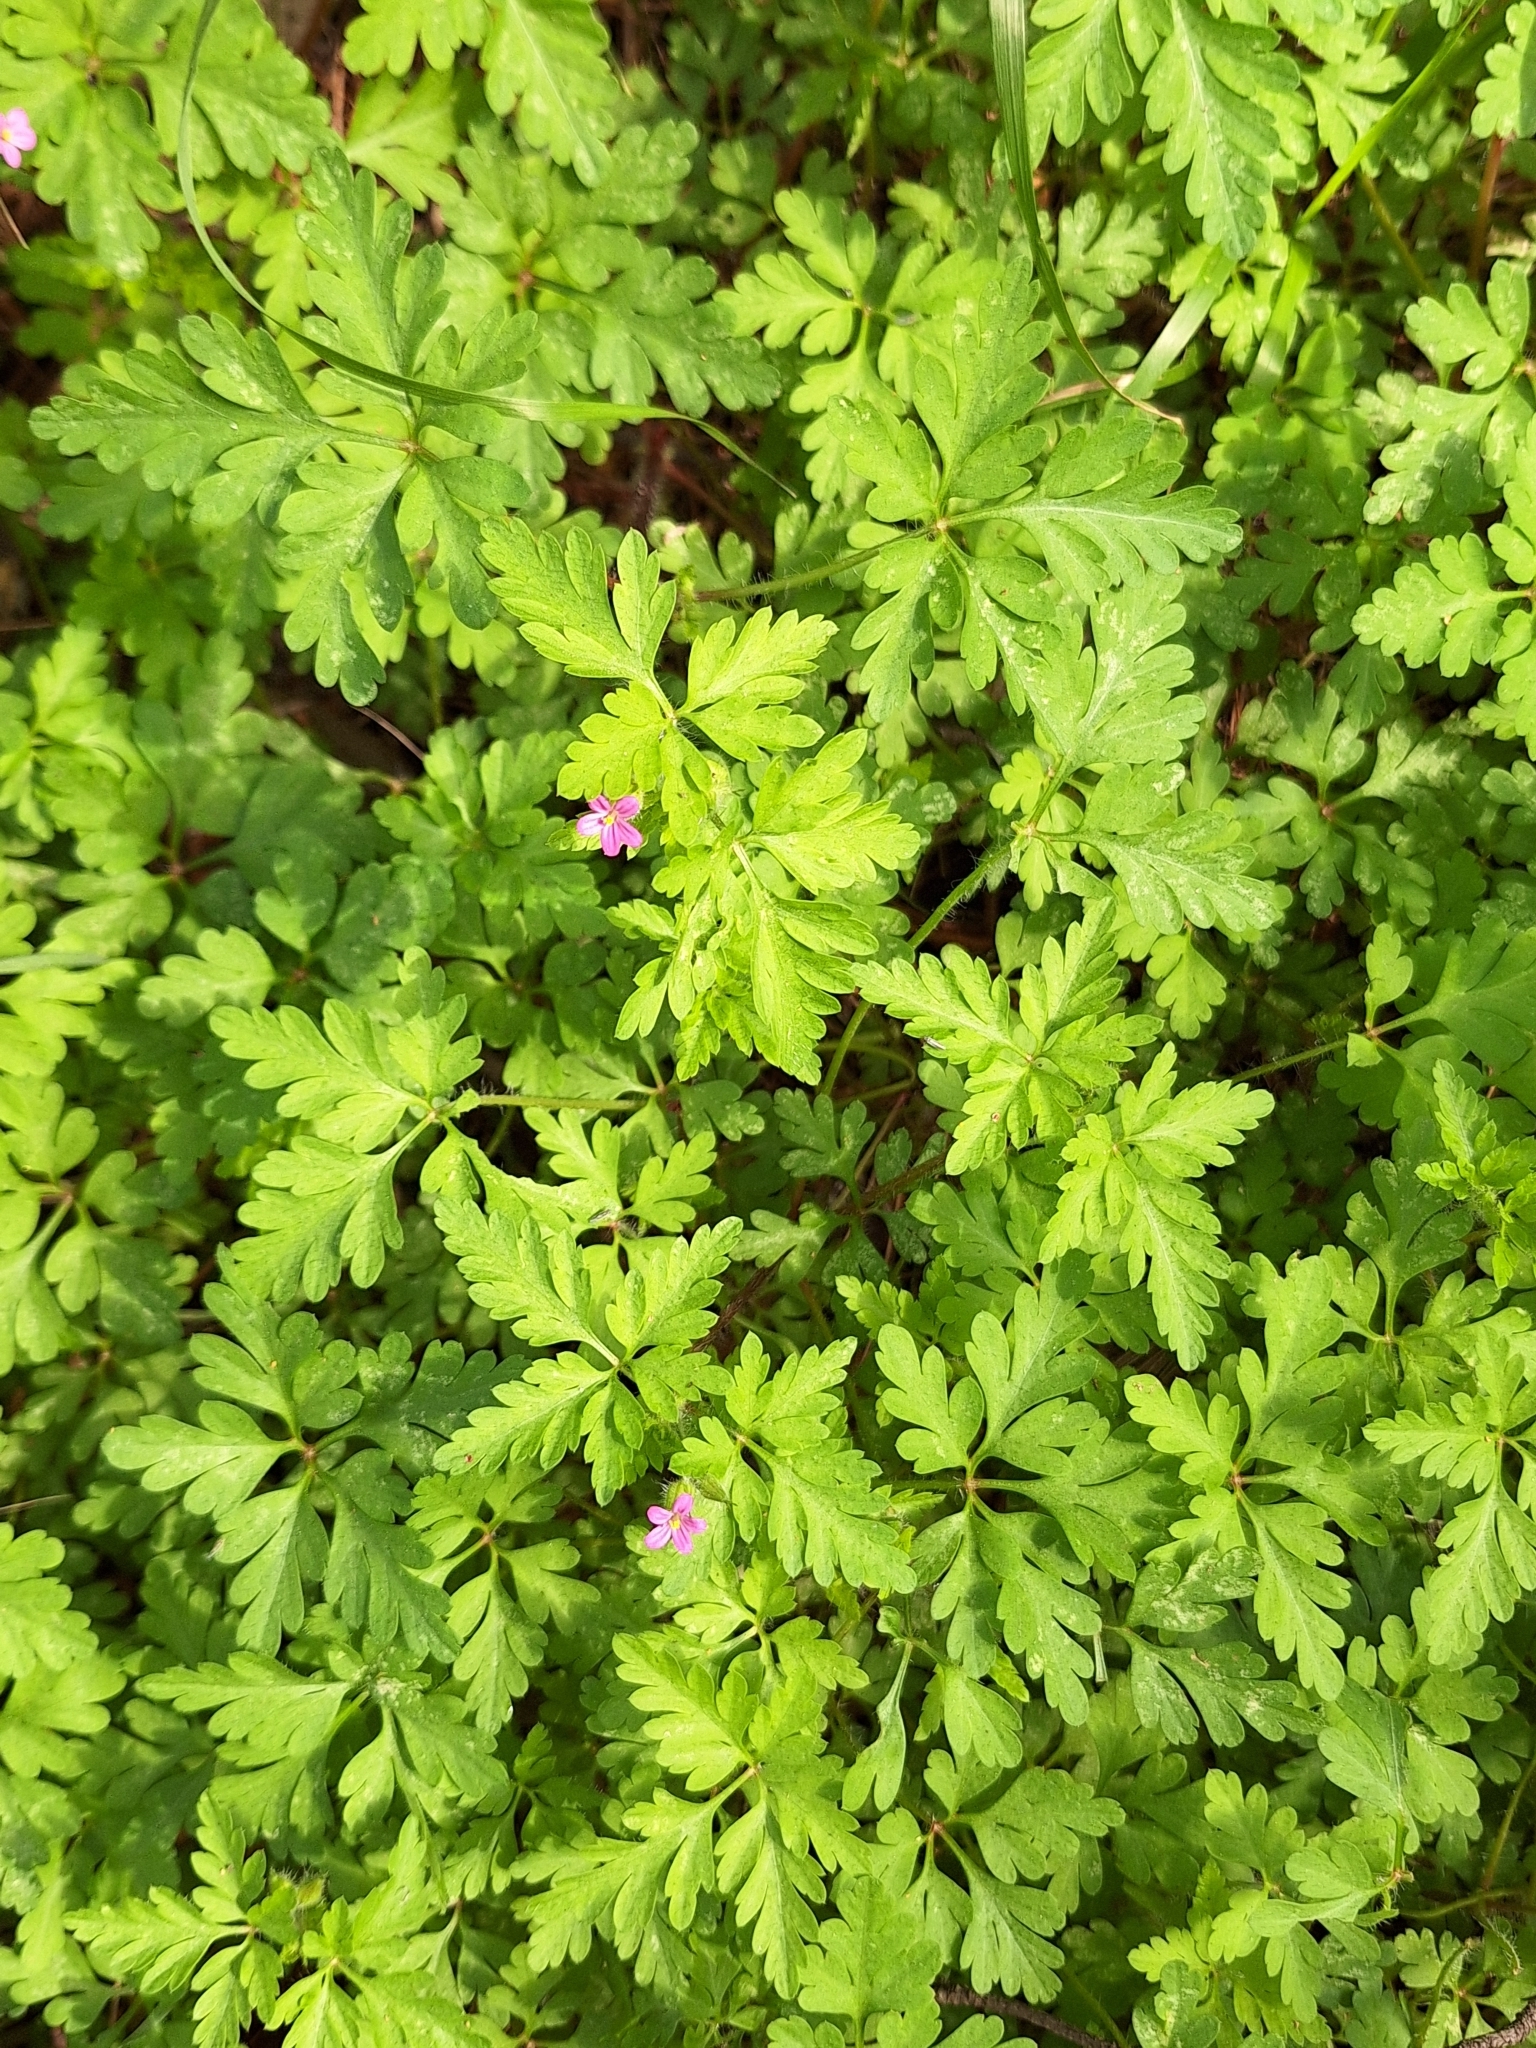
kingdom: Plantae
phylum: Tracheophyta
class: Magnoliopsida
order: Geraniales
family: Geraniaceae
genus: Geranium
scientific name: Geranium robertianum
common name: Herb-robert
